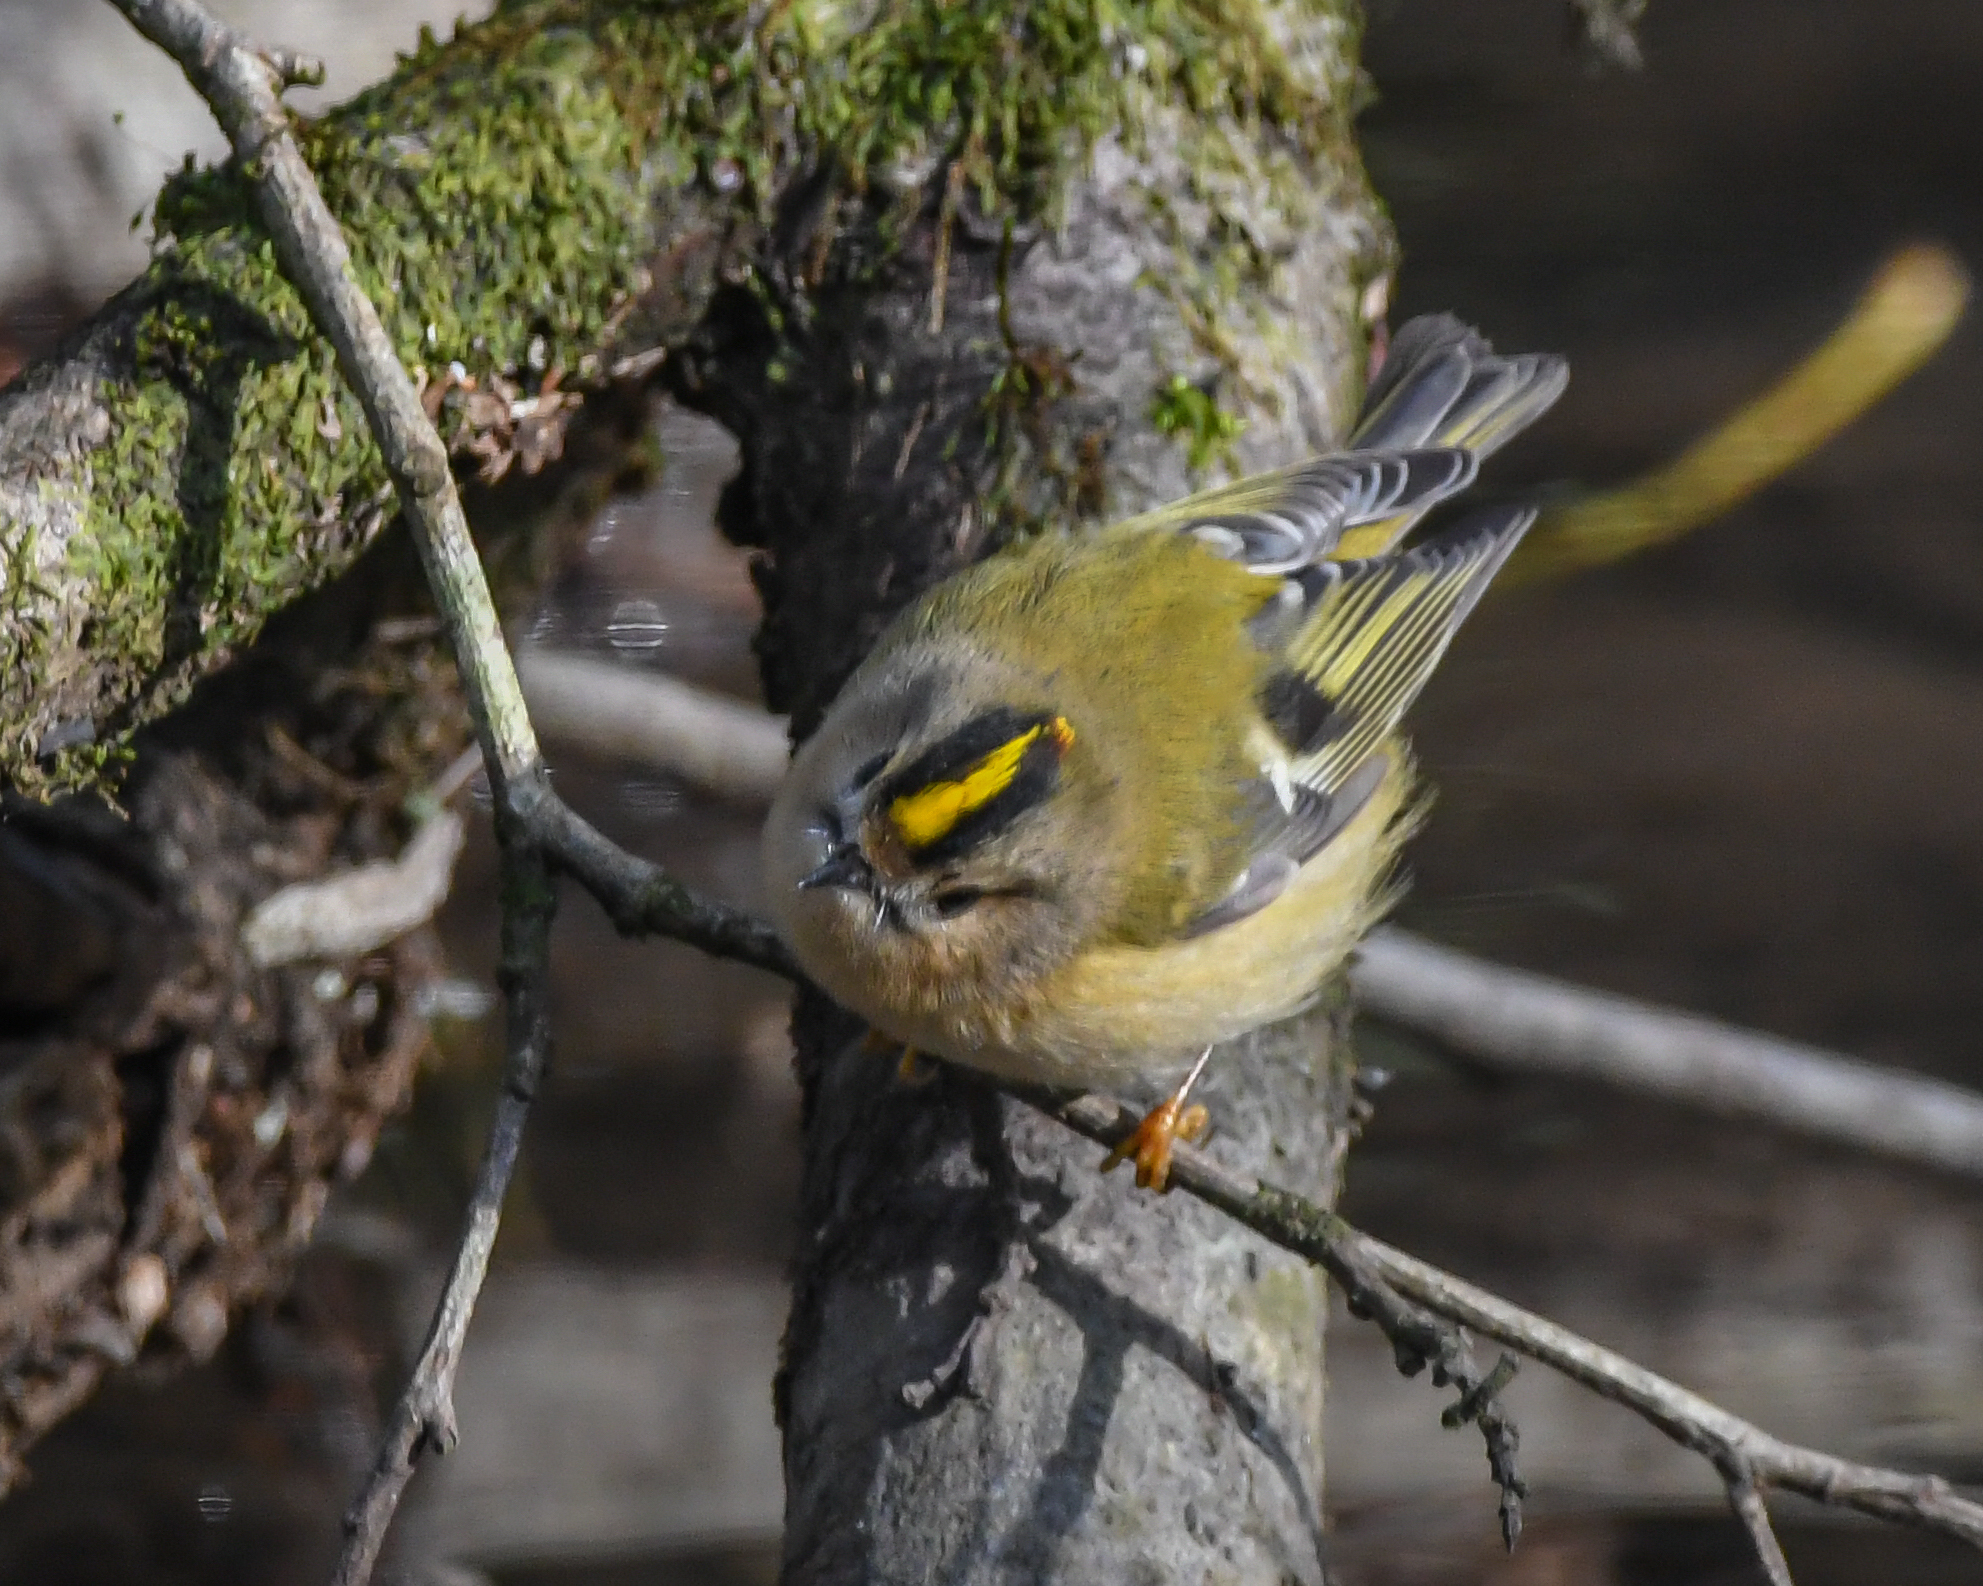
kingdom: Animalia
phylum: Chordata
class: Aves
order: Passeriformes
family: Regulidae
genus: Regulus
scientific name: Regulus regulus
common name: Goldcrest
